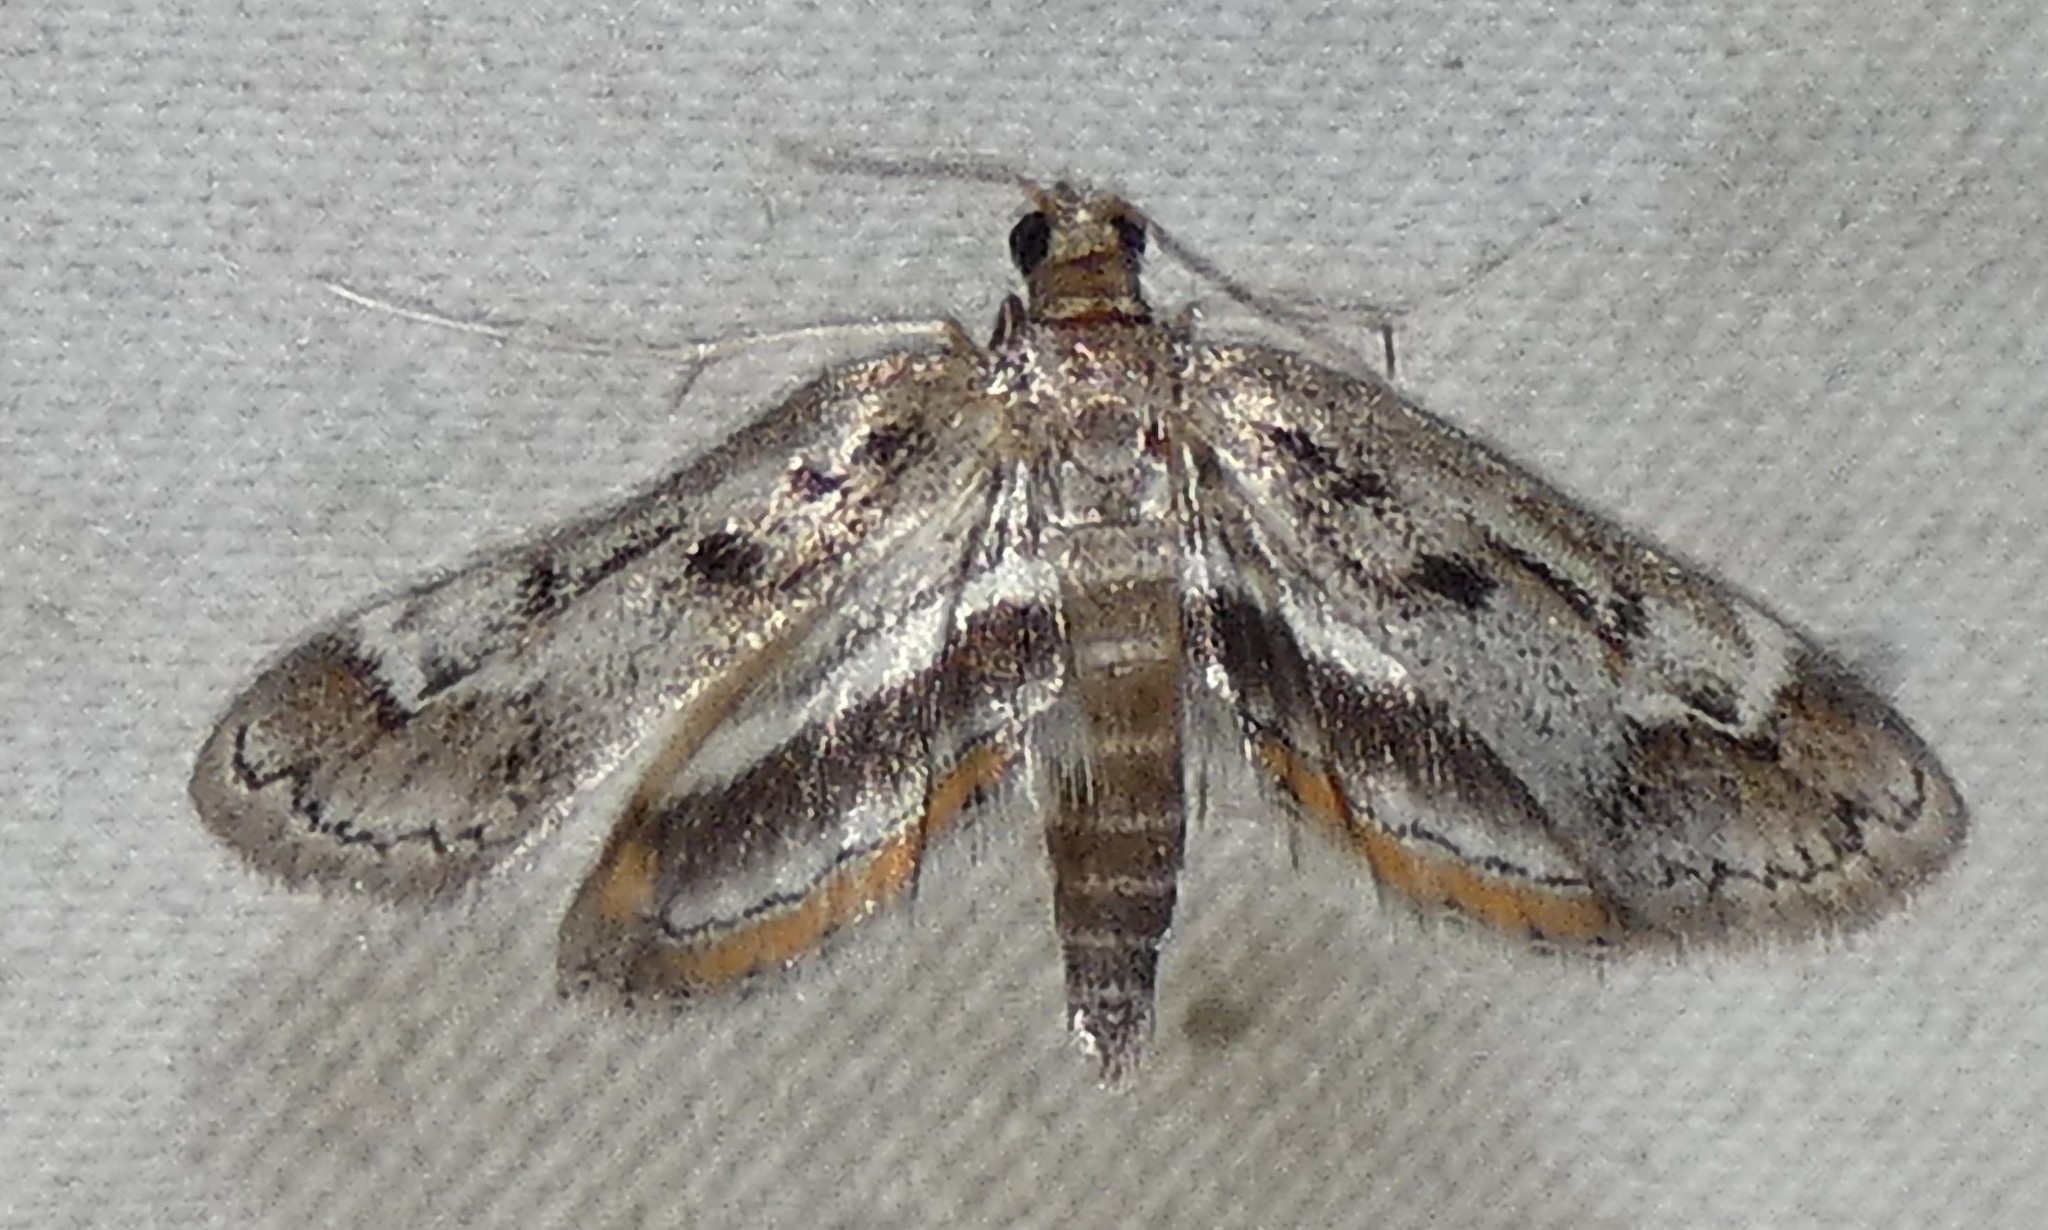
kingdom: Animalia
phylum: Arthropoda
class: Insecta
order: Lepidoptera
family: Crambidae
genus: Parapoynx
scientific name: Parapoynx obscuralis
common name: American china-mark
